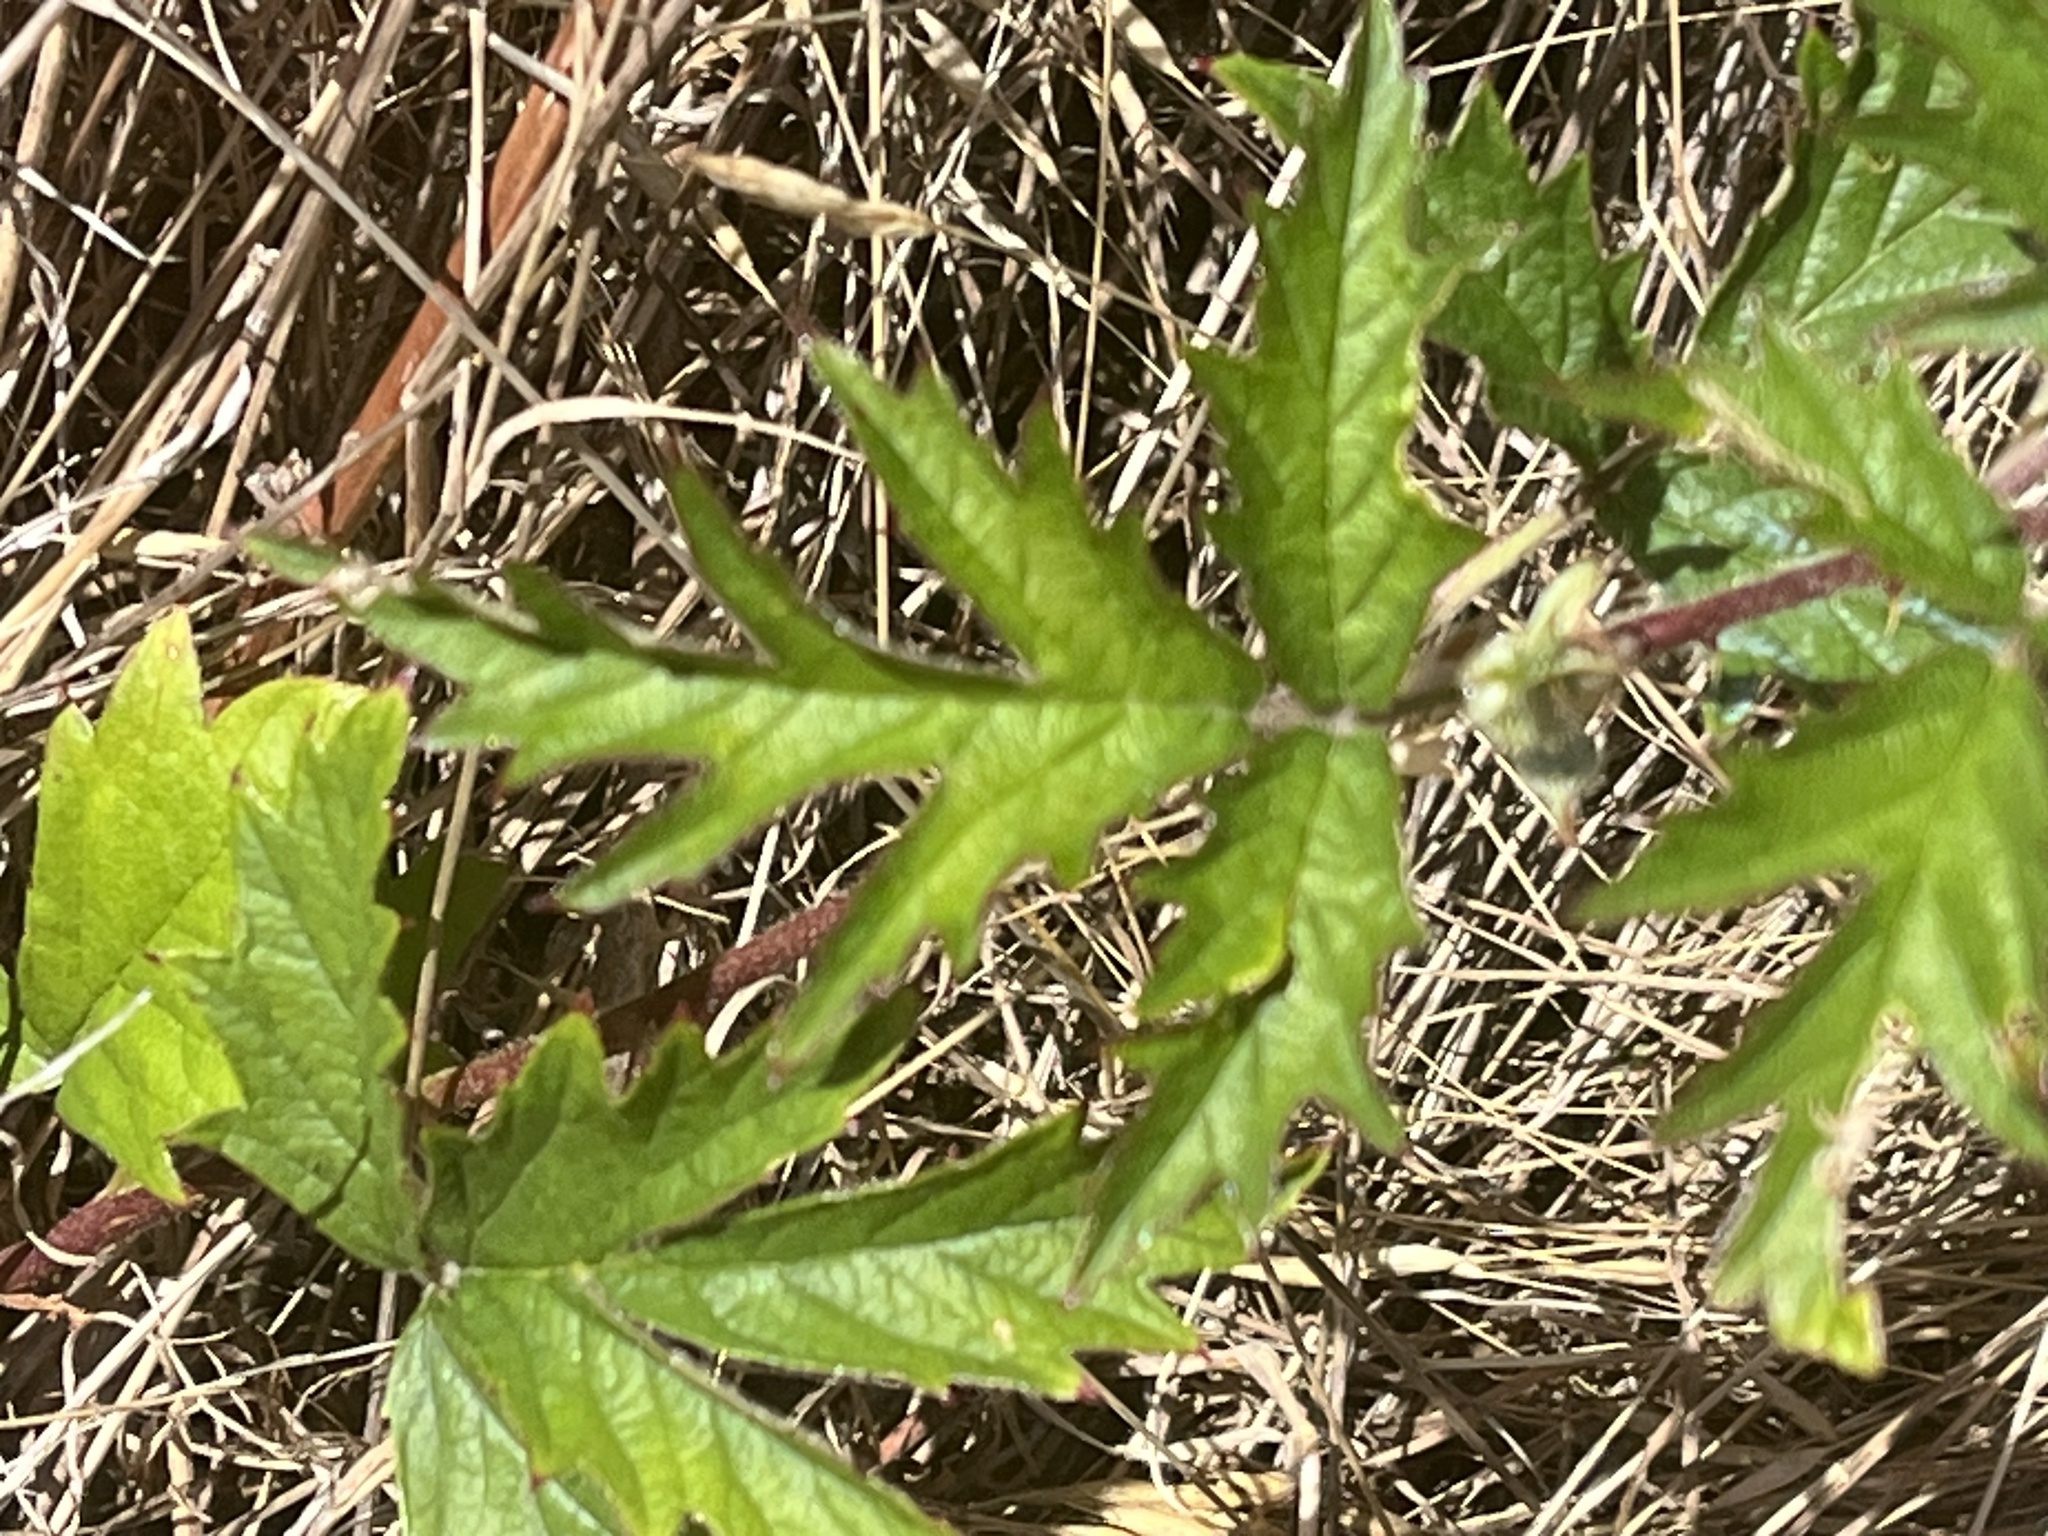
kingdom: Plantae
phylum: Tracheophyta
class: Magnoliopsida
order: Rosales
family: Rosaceae
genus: Rubus
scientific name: Rubus laciniatus
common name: Evergreen blackberry
